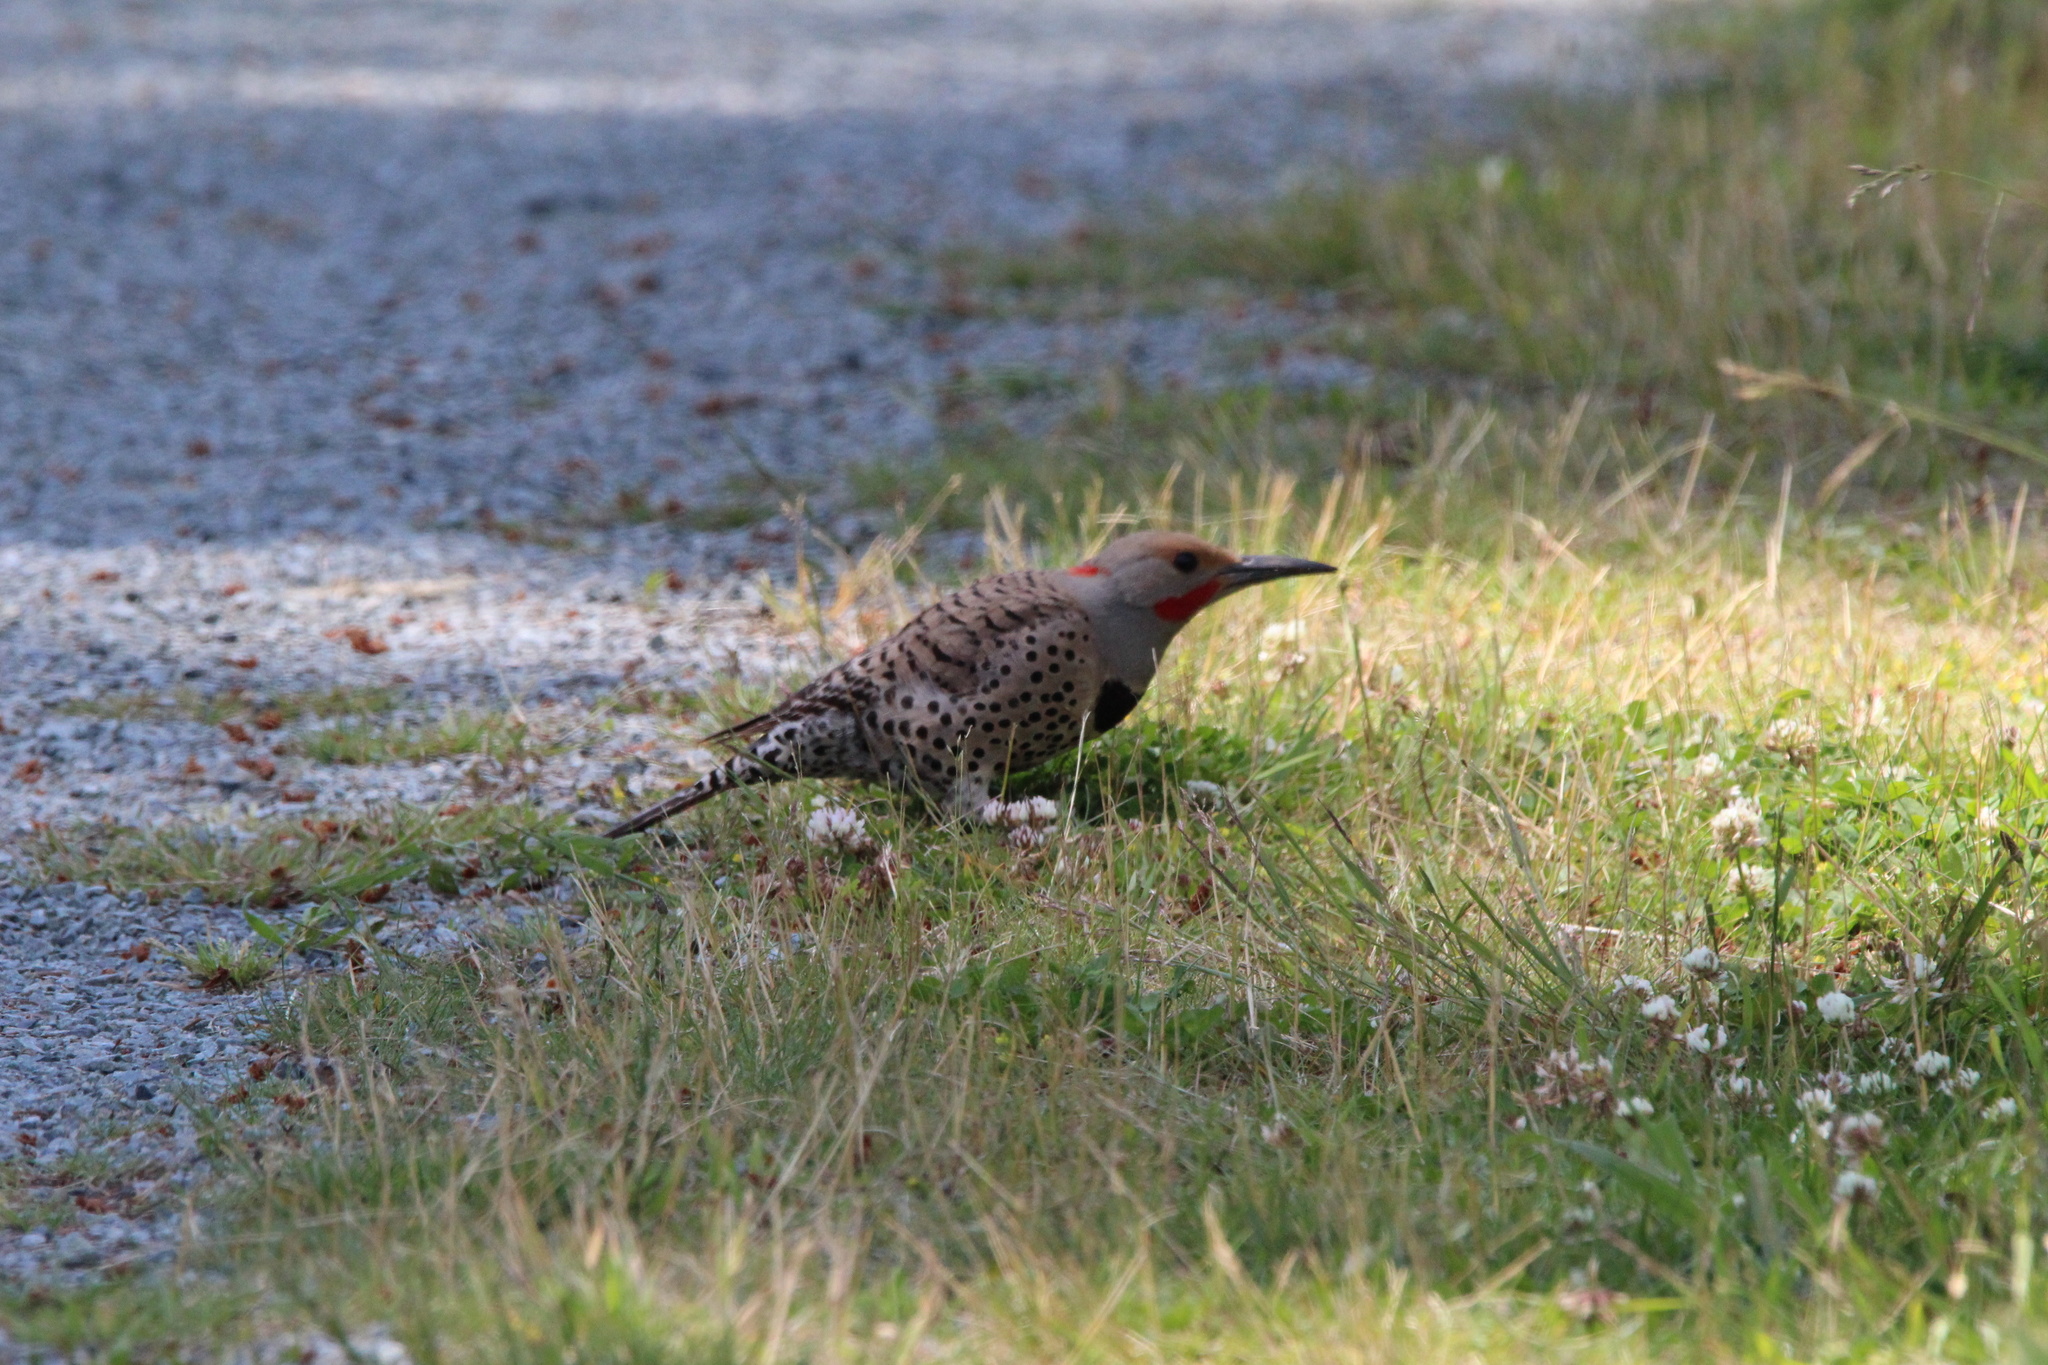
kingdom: Animalia
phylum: Chordata
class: Aves
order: Piciformes
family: Picidae
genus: Colaptes
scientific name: Colaptes
